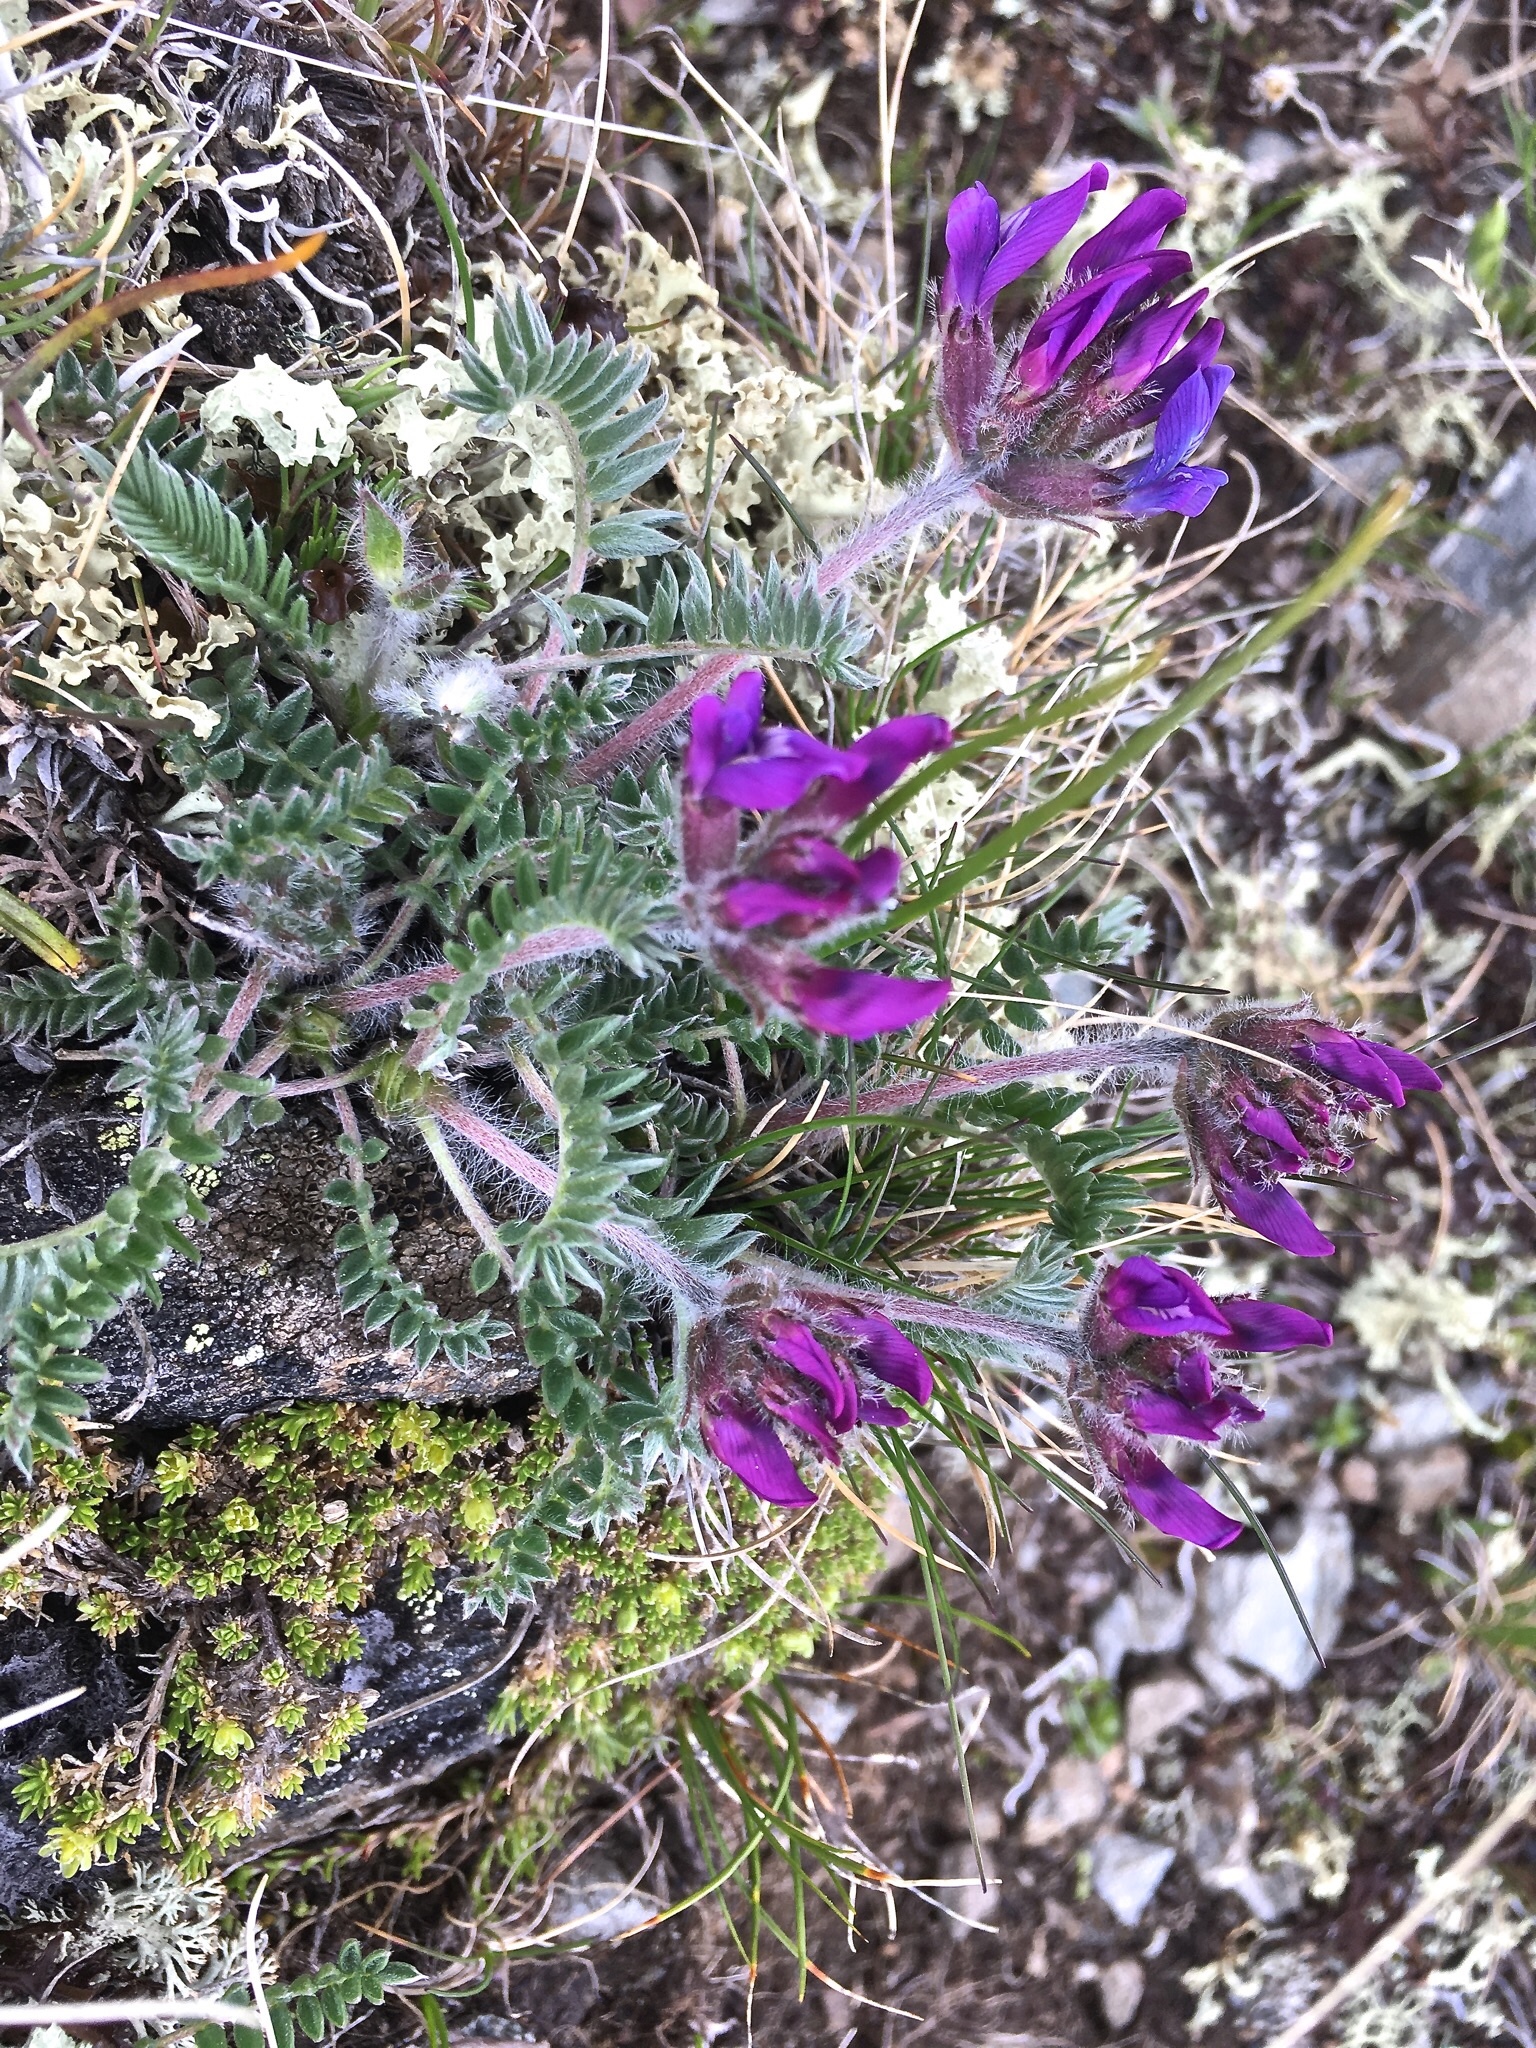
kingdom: Plantae
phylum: Tracheophyta
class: Magnoliopsida
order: Fabales
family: Fabaceae
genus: Oxytropis
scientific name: Oxytropis halleri
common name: Purple oxytropis
